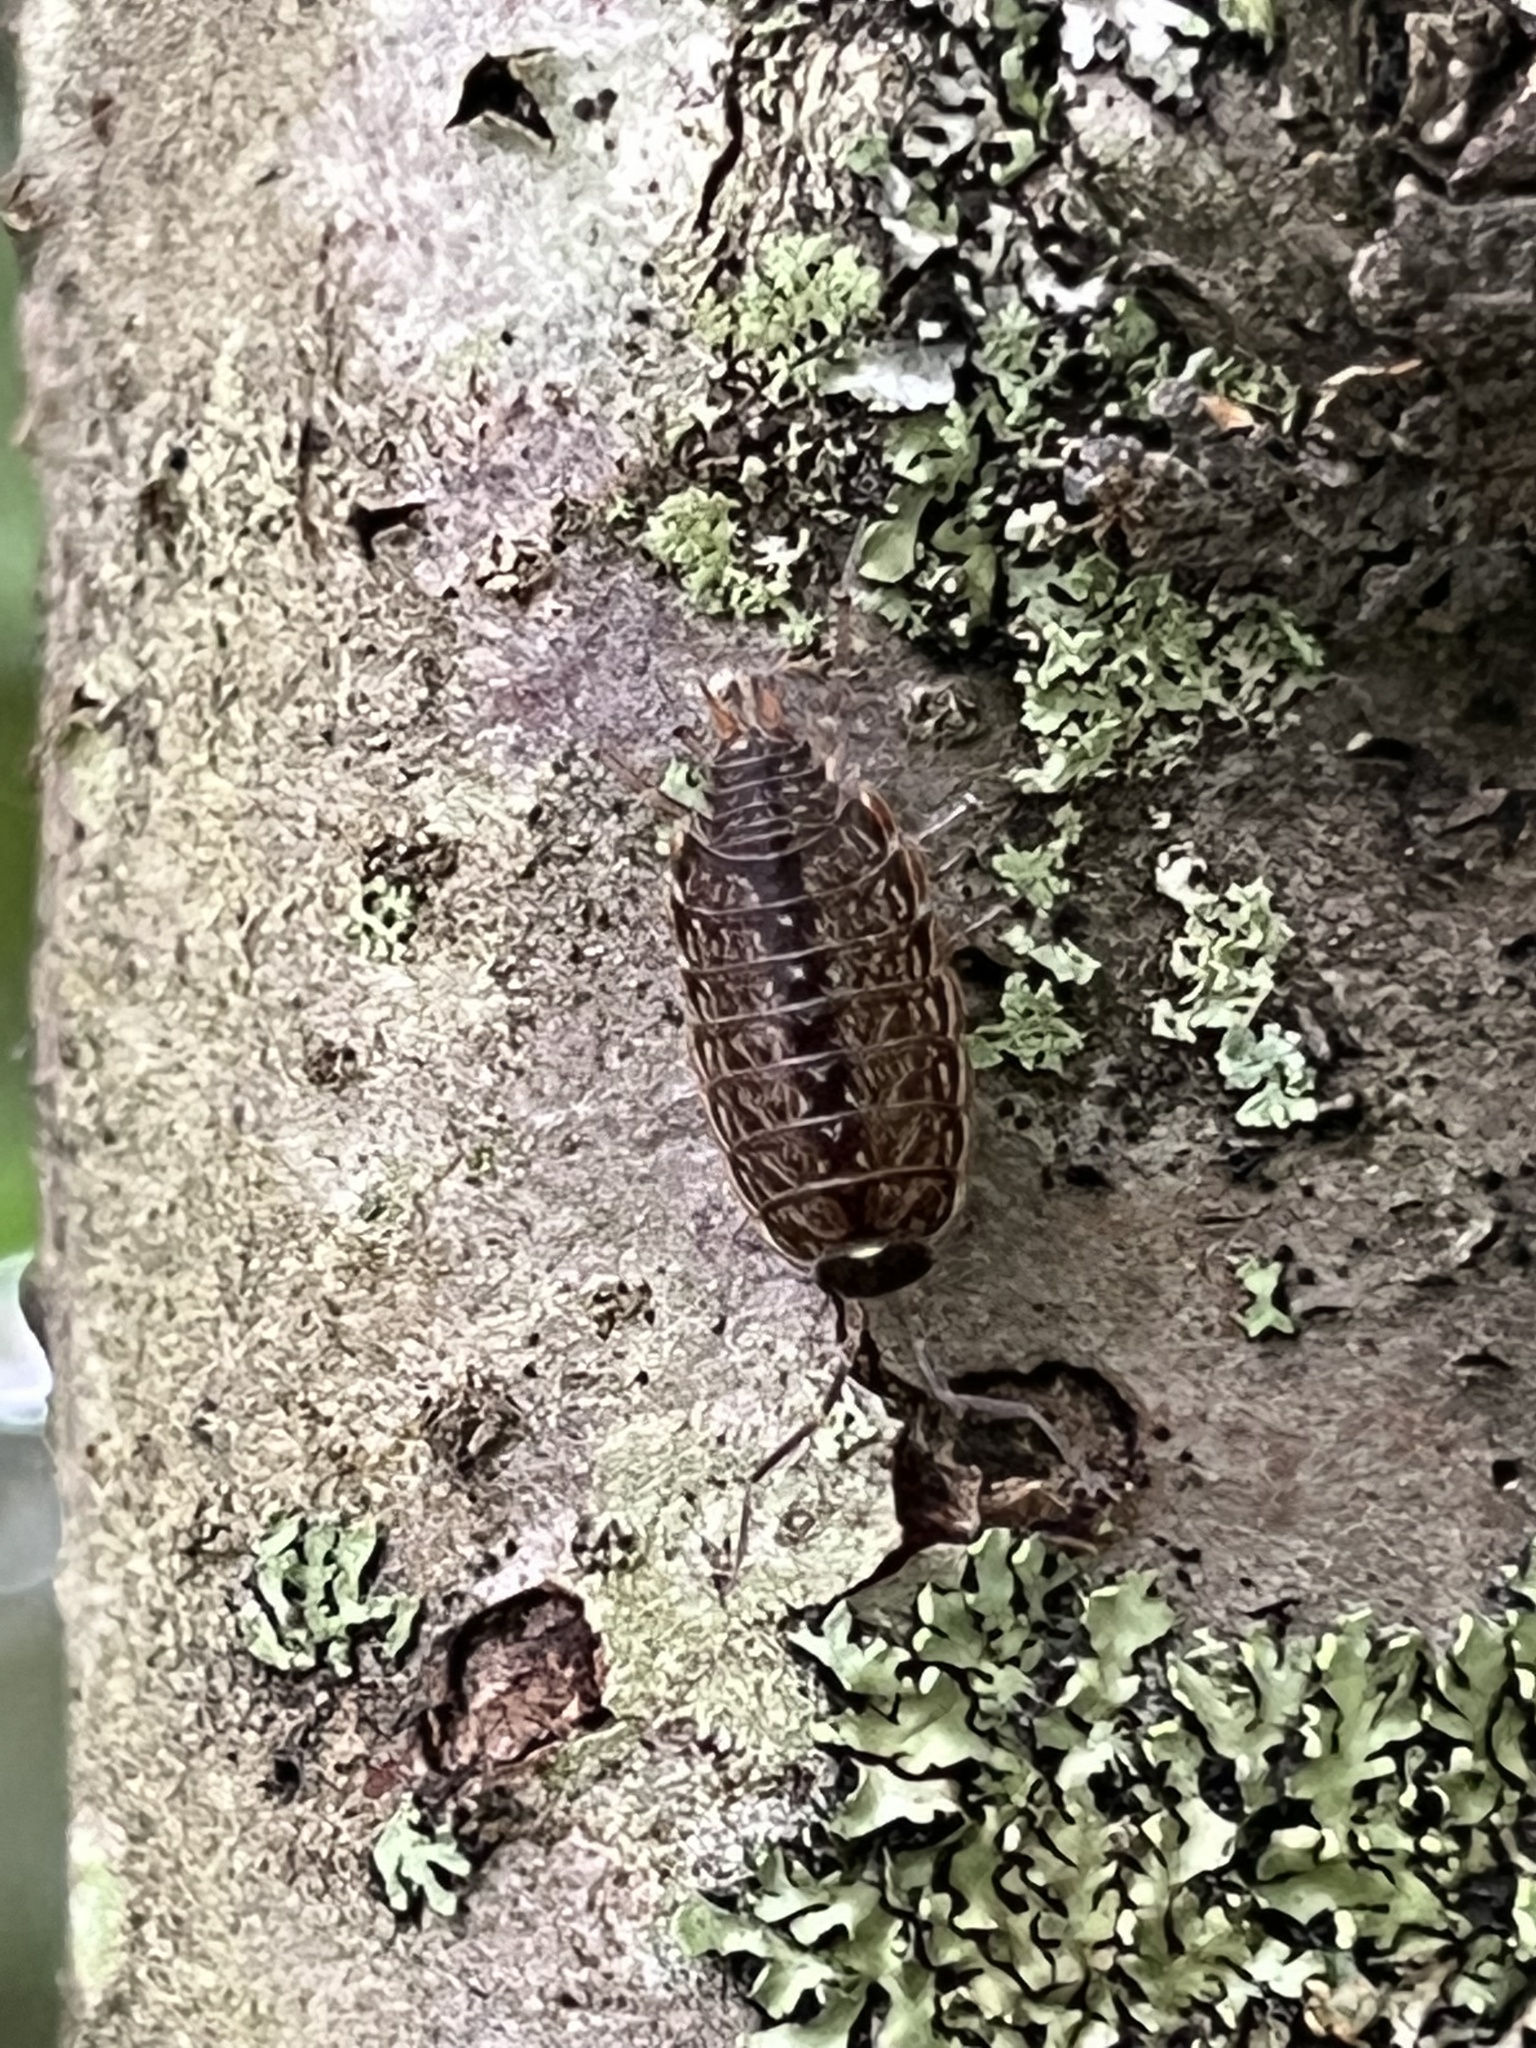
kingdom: Animalia
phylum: Arthropoda
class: Malacostraca
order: Isopoda
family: Philosciidae
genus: Philoscia
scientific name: Philoscia muscorum
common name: Common striped woodlouse
